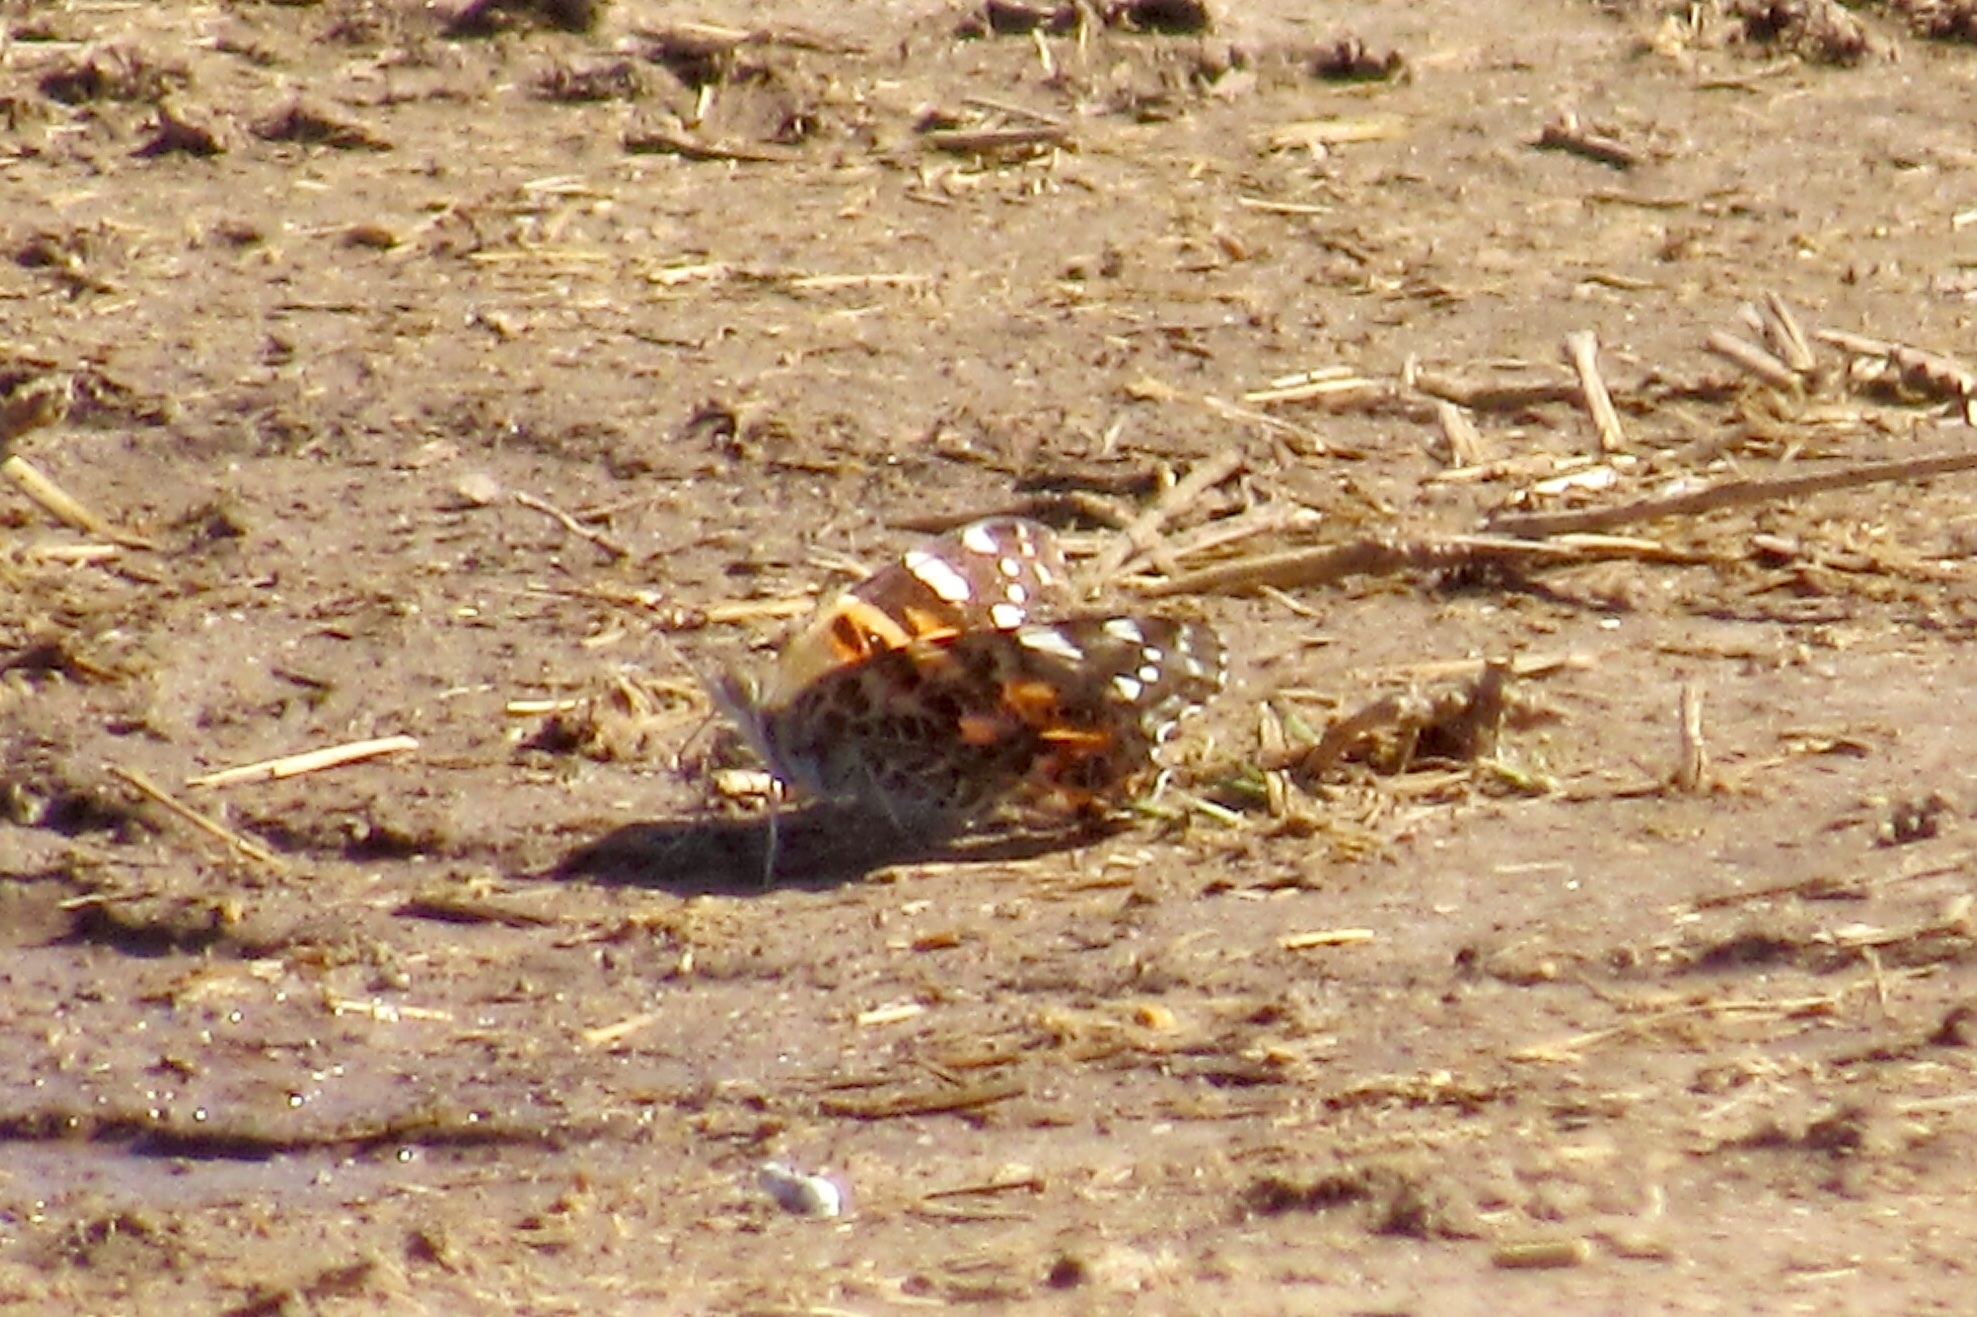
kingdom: Animalia
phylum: Arthropoda
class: Insecta
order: Lepidoptera
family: Nymphalidae
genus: Vanessa
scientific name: Vanessa cardui
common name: Painted lady
